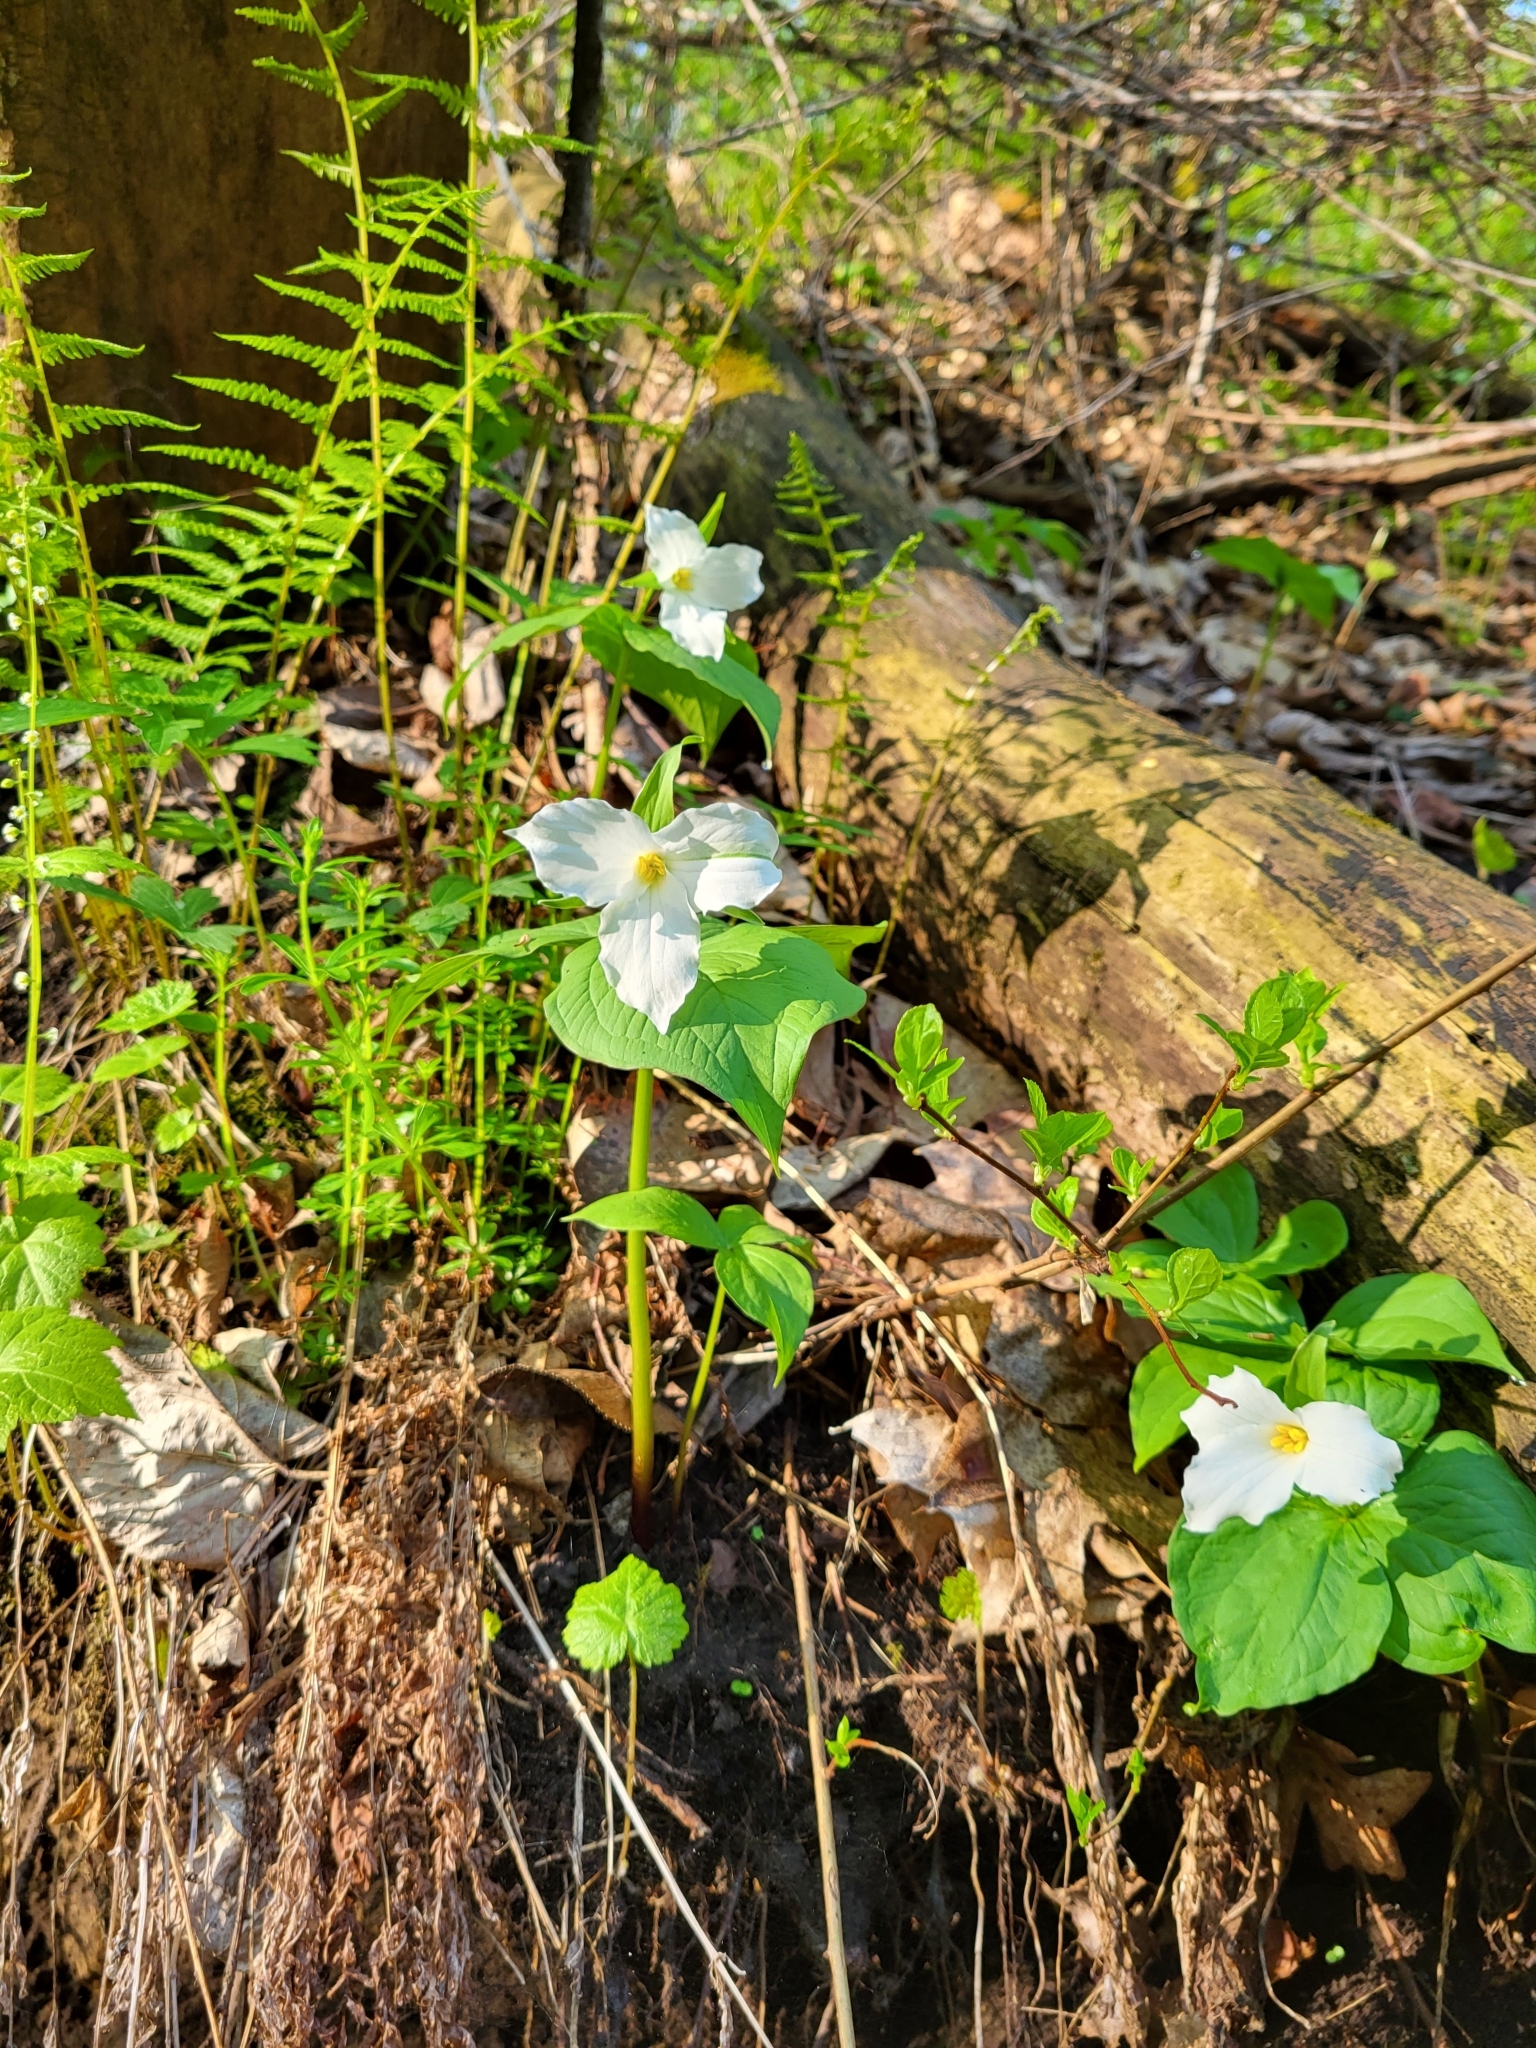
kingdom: Plantae
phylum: Tracheophyta
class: Liliopsida
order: Liliales
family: Melanthiaceae
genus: Trillium
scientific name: Trillium grandiflorum
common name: Great white trillium
